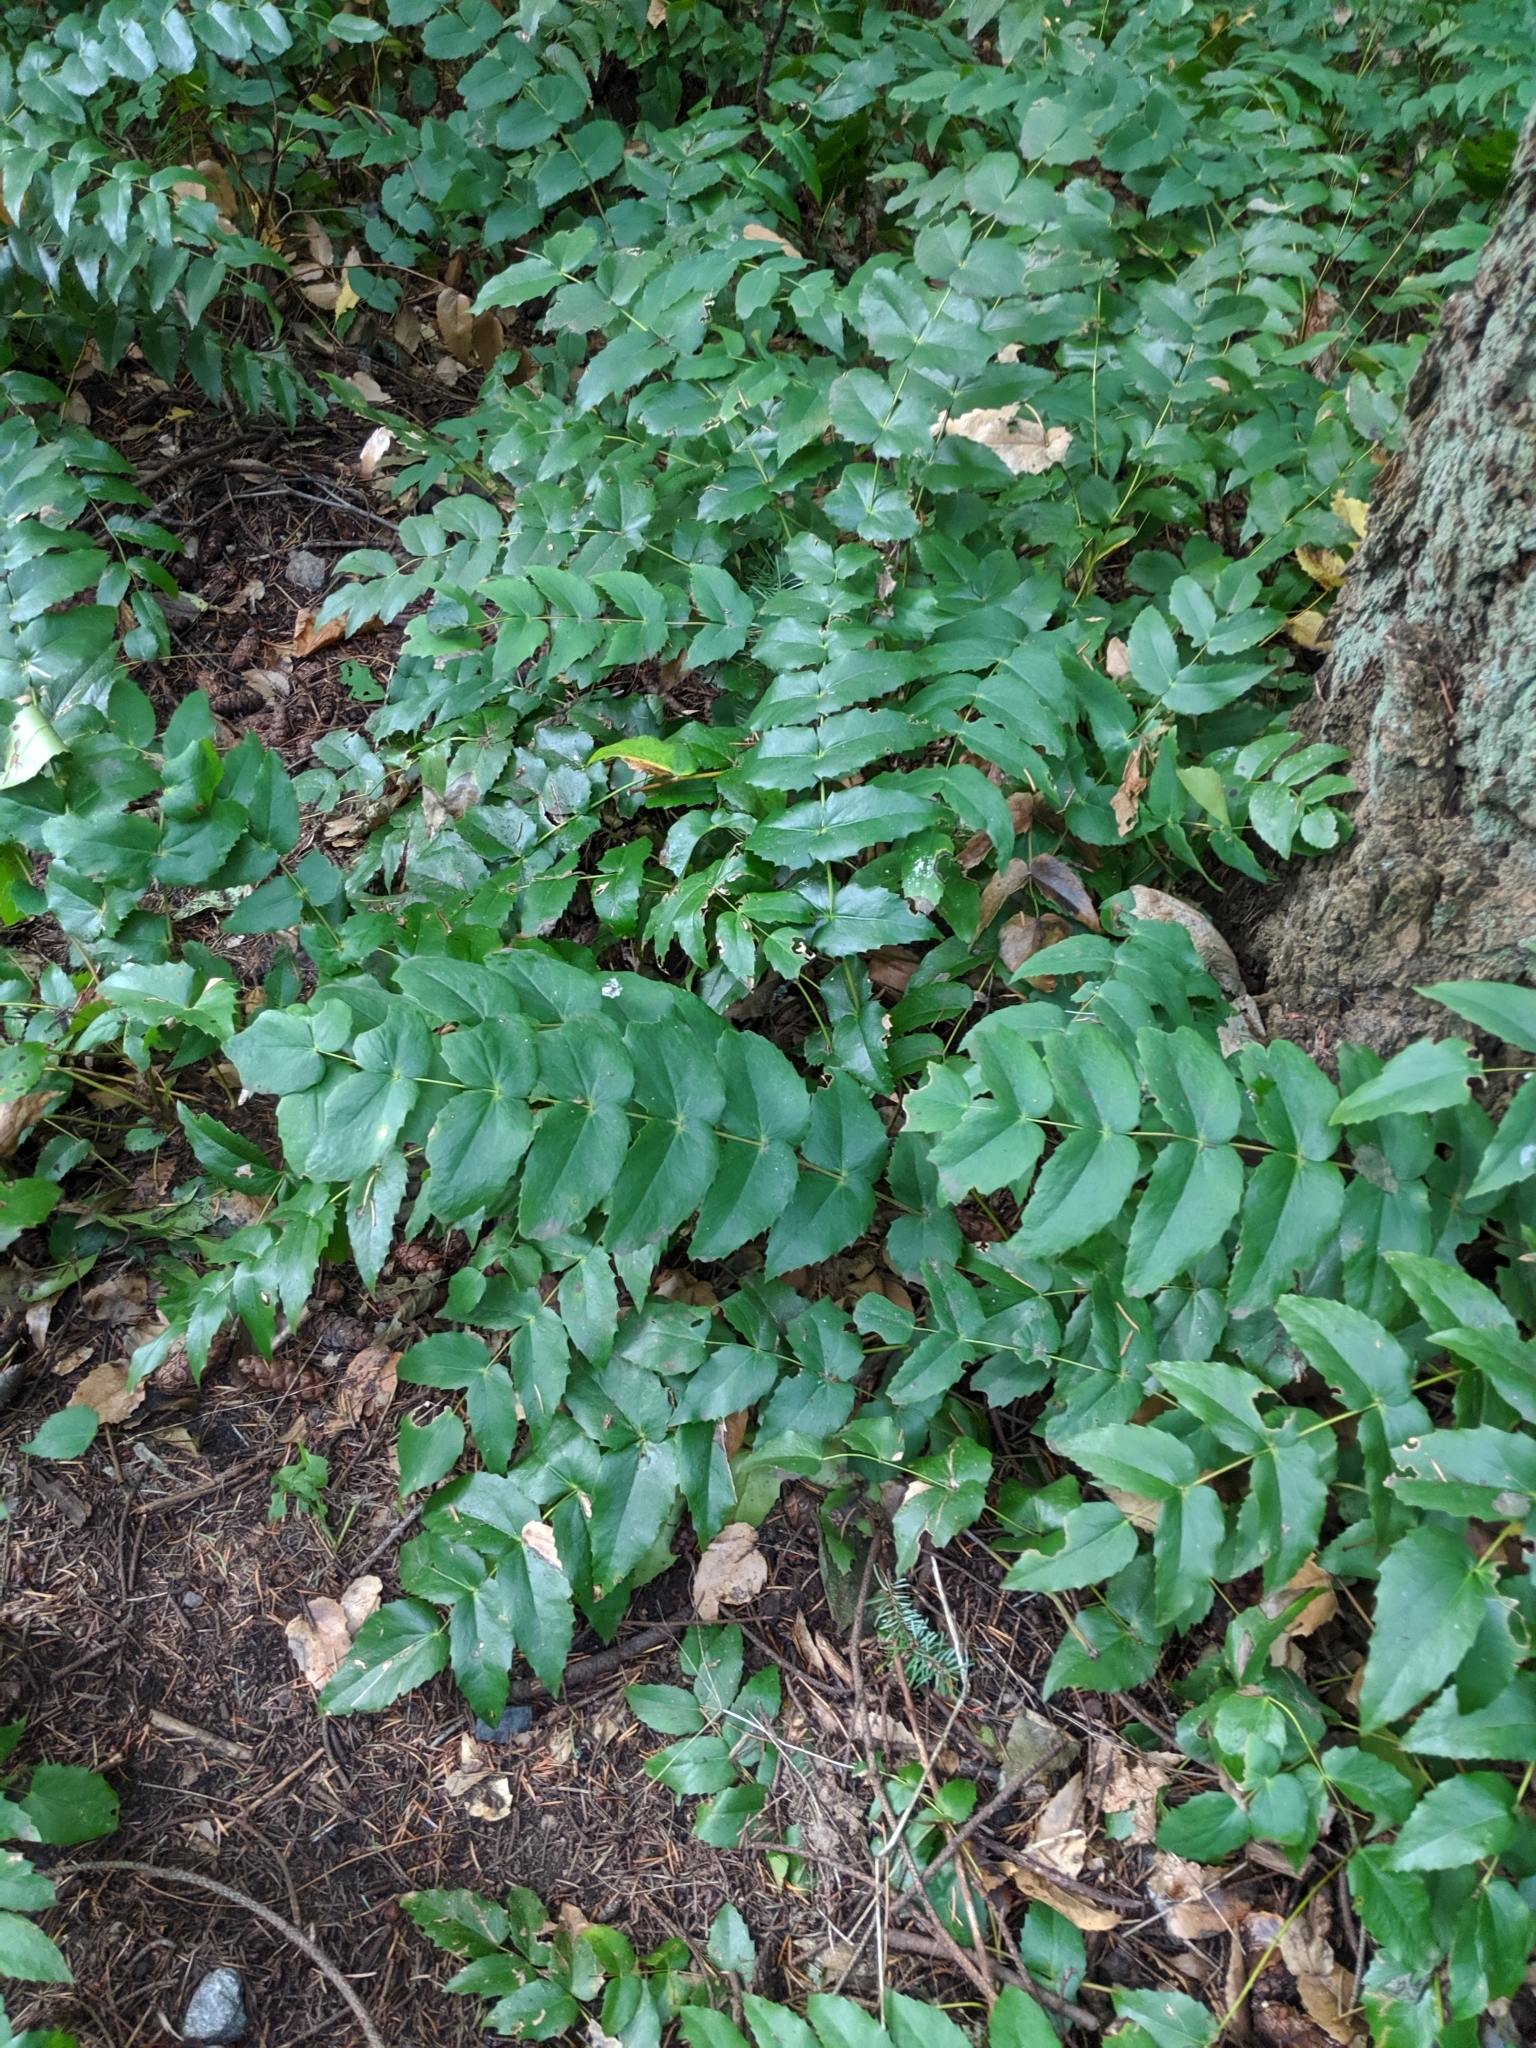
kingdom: Plantae
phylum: Tracheophyta
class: Magnoliopsida
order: Ranunculales
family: Berberidaceae
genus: Mahonia
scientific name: Mahonia nervosa
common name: Cascade oregon-grape
